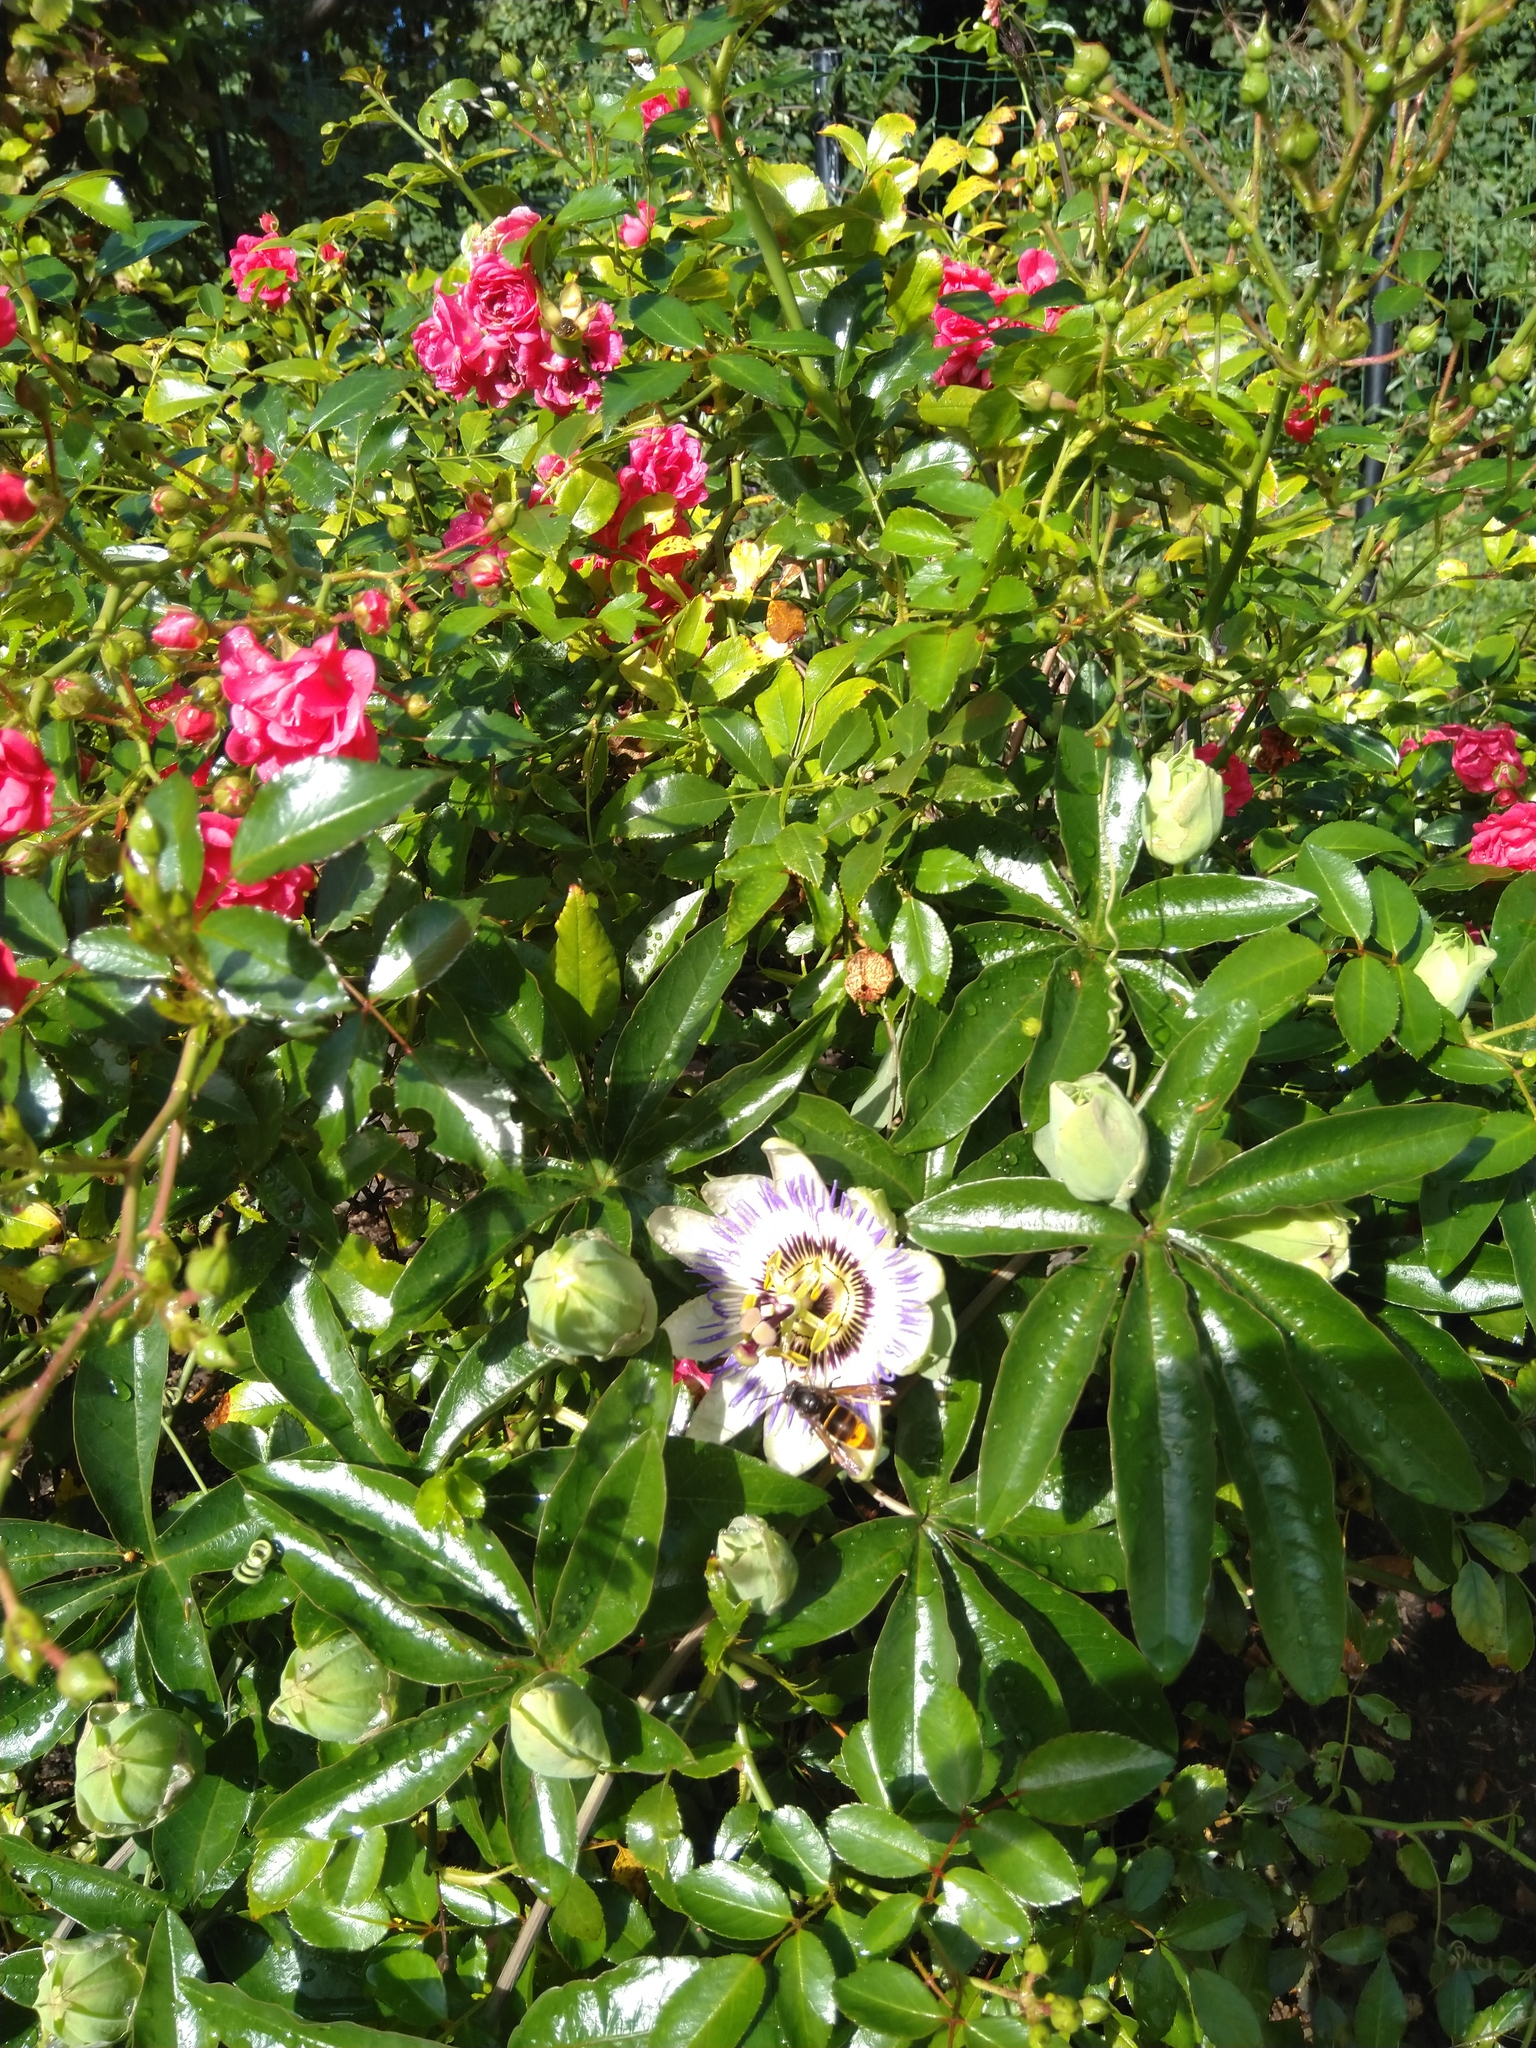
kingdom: Animalia
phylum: Arthropoda
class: Insecta
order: Hymenoptera
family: Vespidae
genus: Vespa
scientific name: Vespa velutina
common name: Asian hornet
